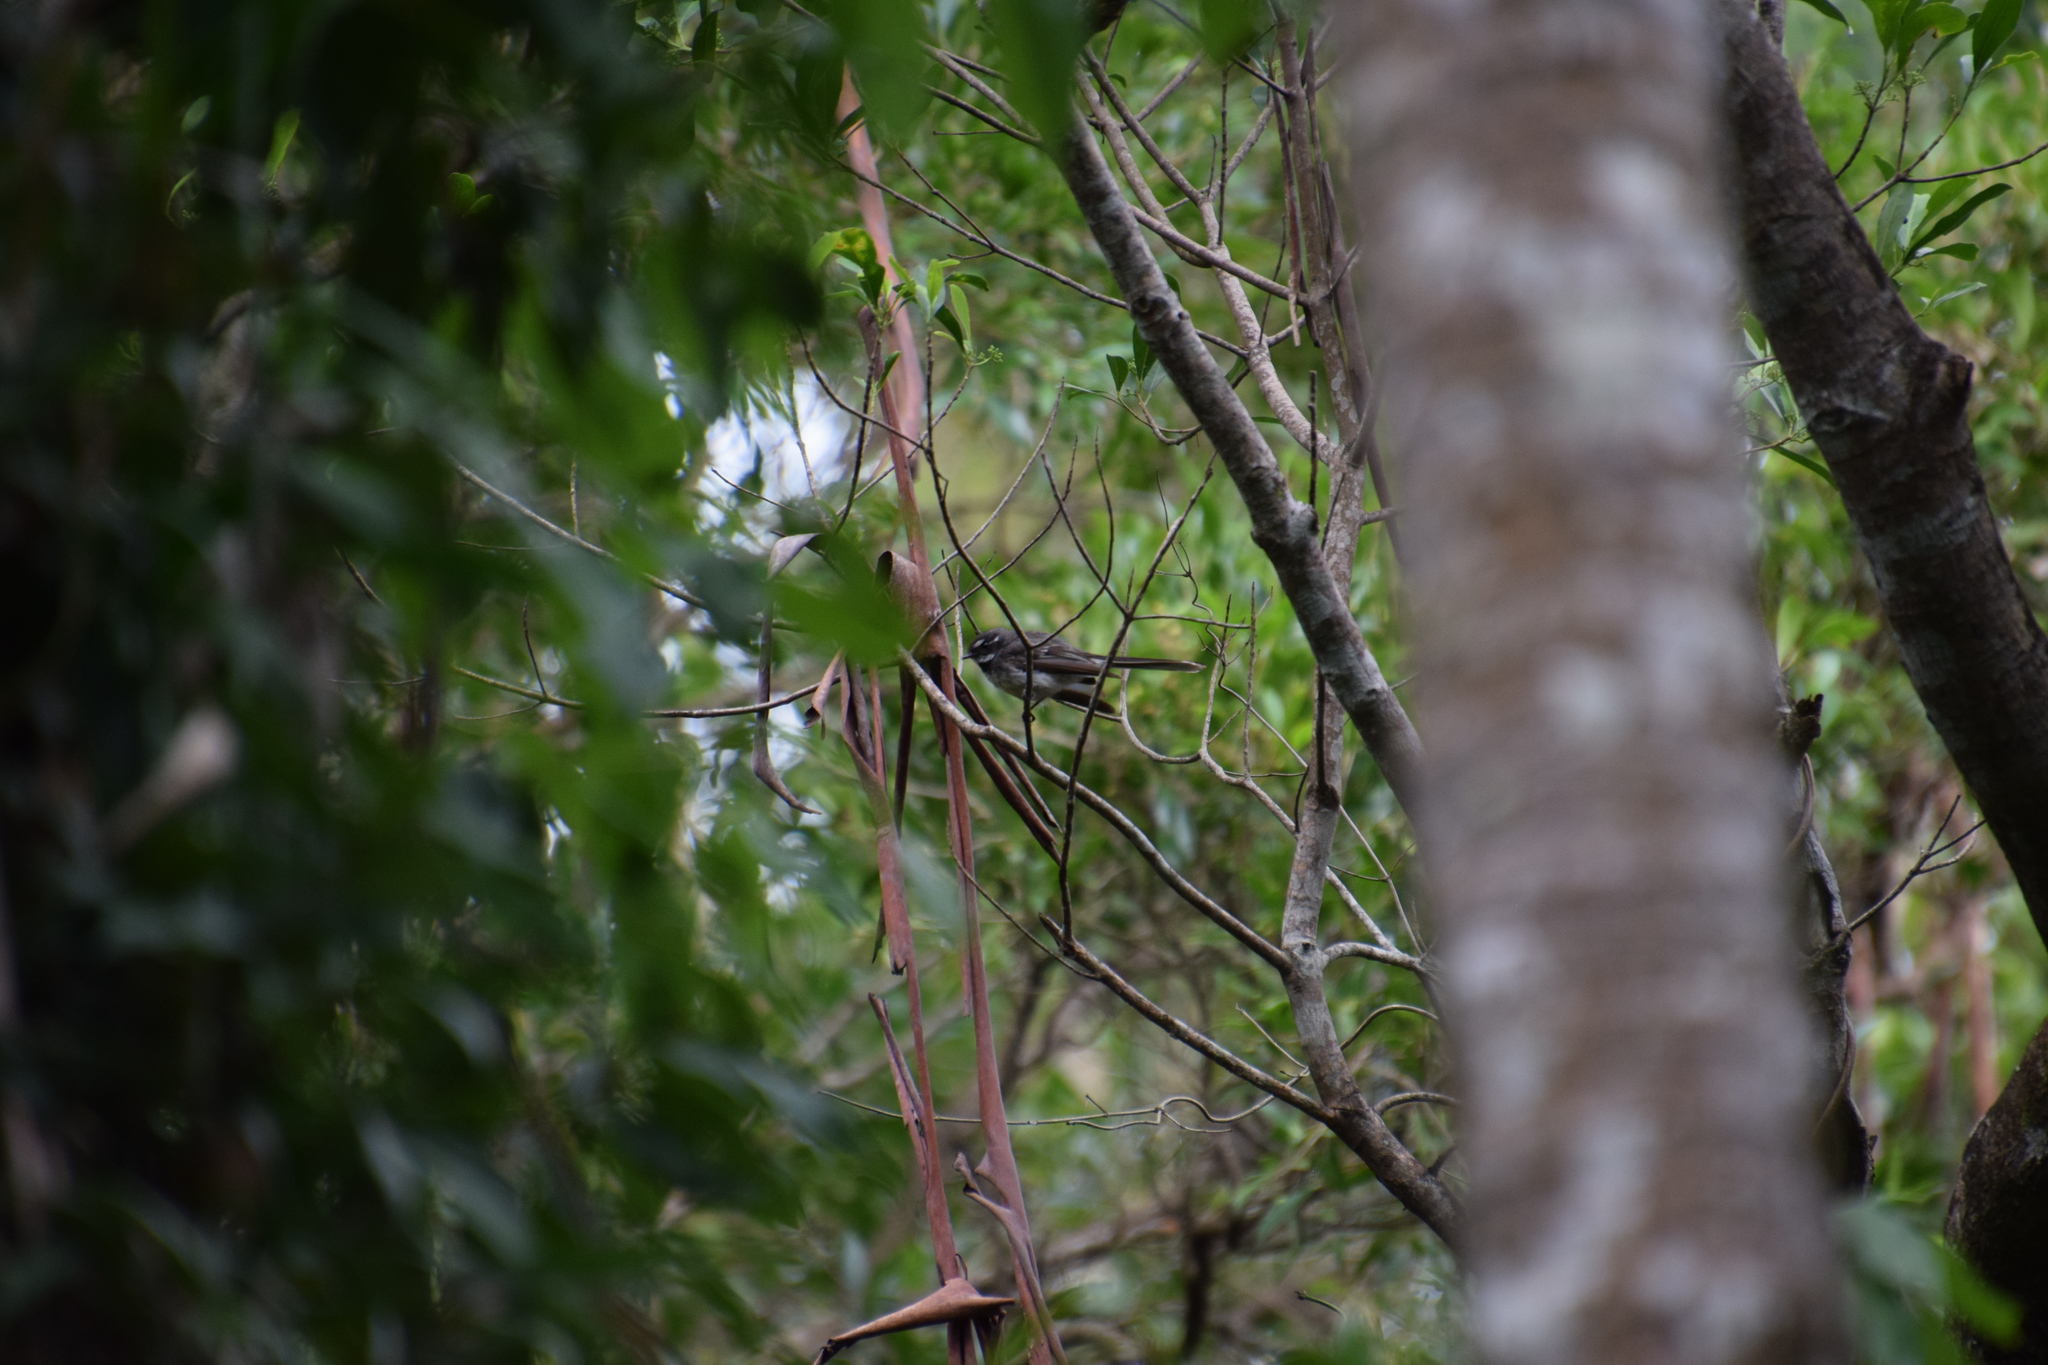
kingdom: Animalia
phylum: Chordata
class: Aves
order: Passeriformes
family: Rhipiduridae
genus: Rhipidura
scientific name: Rhipidura albiscapa
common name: Grey fantail
